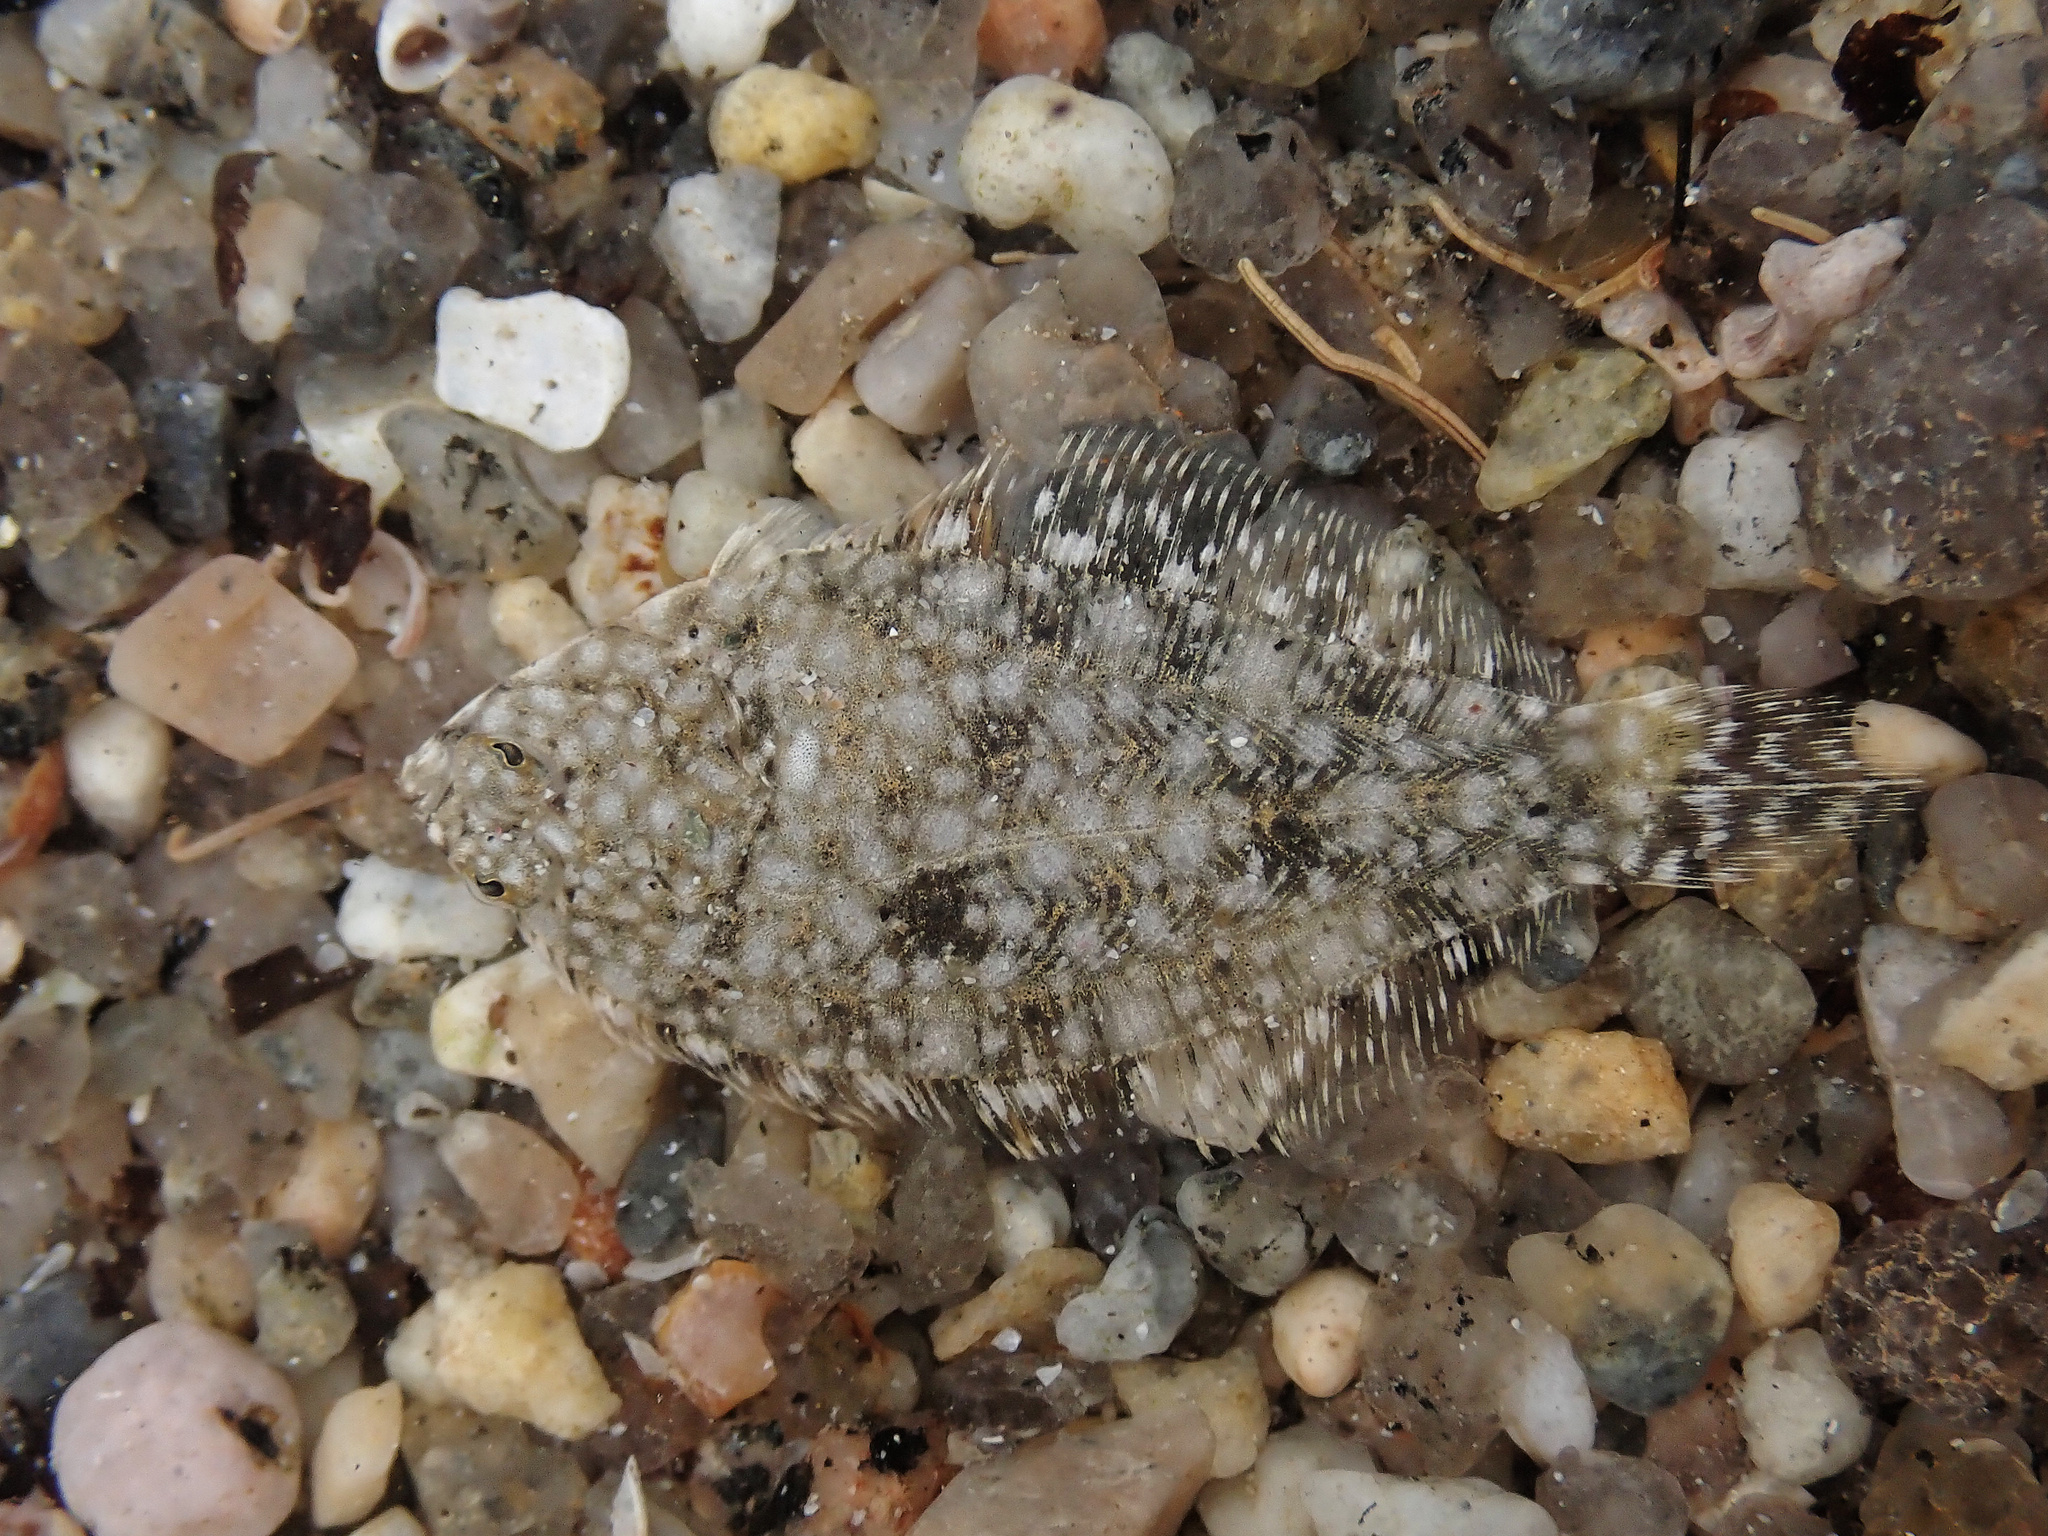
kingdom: Animalia
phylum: Chordata
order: Pleuronectiformes
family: Pleuronectidae
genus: Pleuronectes
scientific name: Pleuronectes platessa
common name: Plaice
